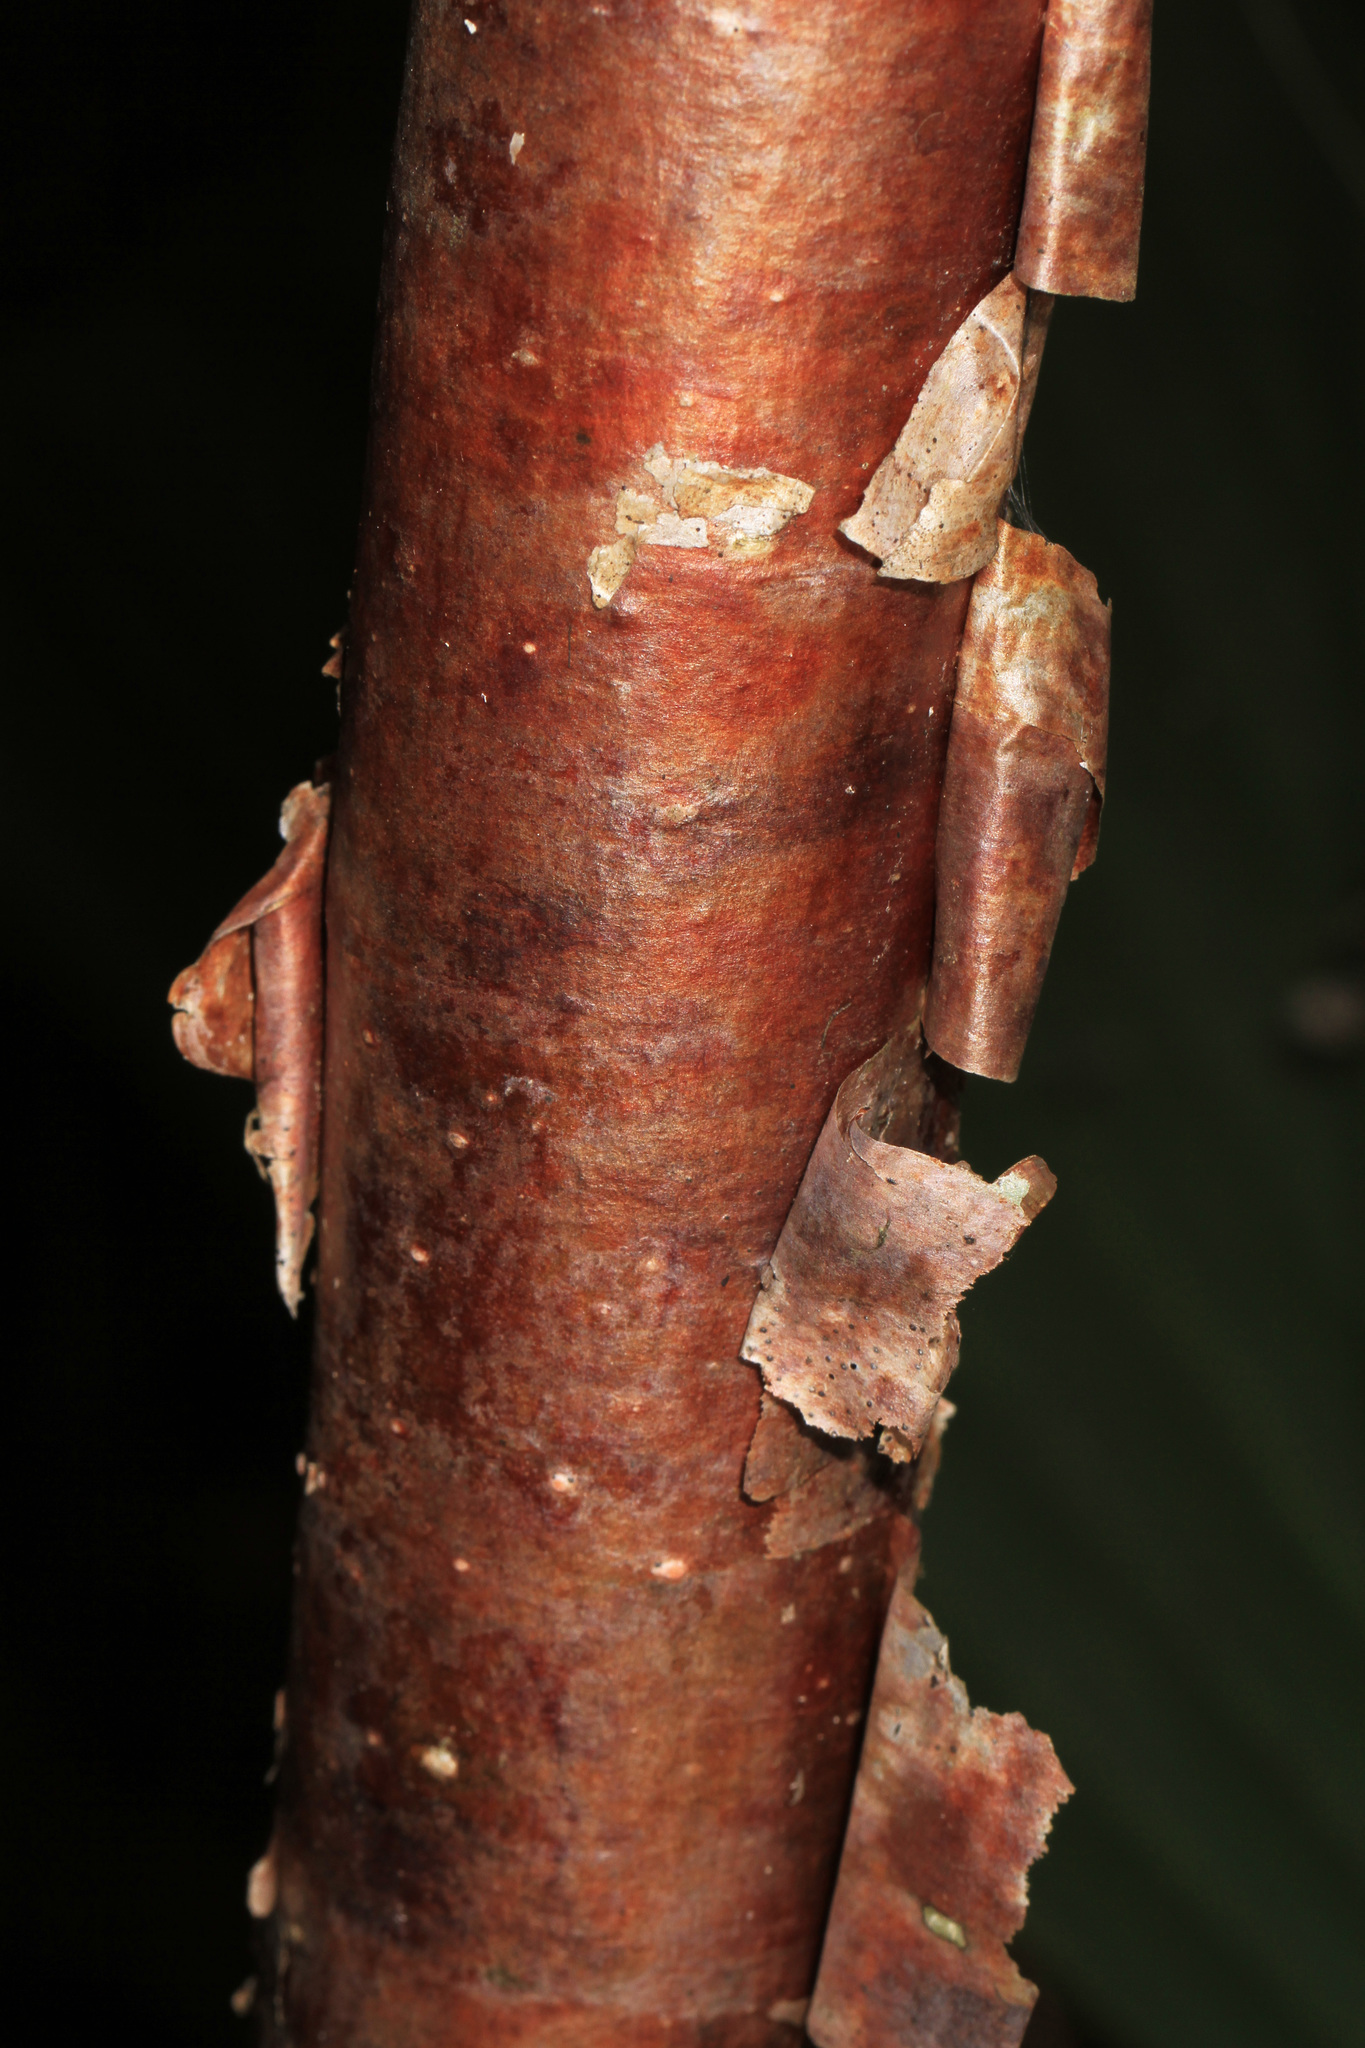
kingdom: Plantae
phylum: Tracheophyta
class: Magnoliopsida
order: Sapindales
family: Burseraceae
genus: Bursera
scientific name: Bursera simaruba
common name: Turpentine tree
